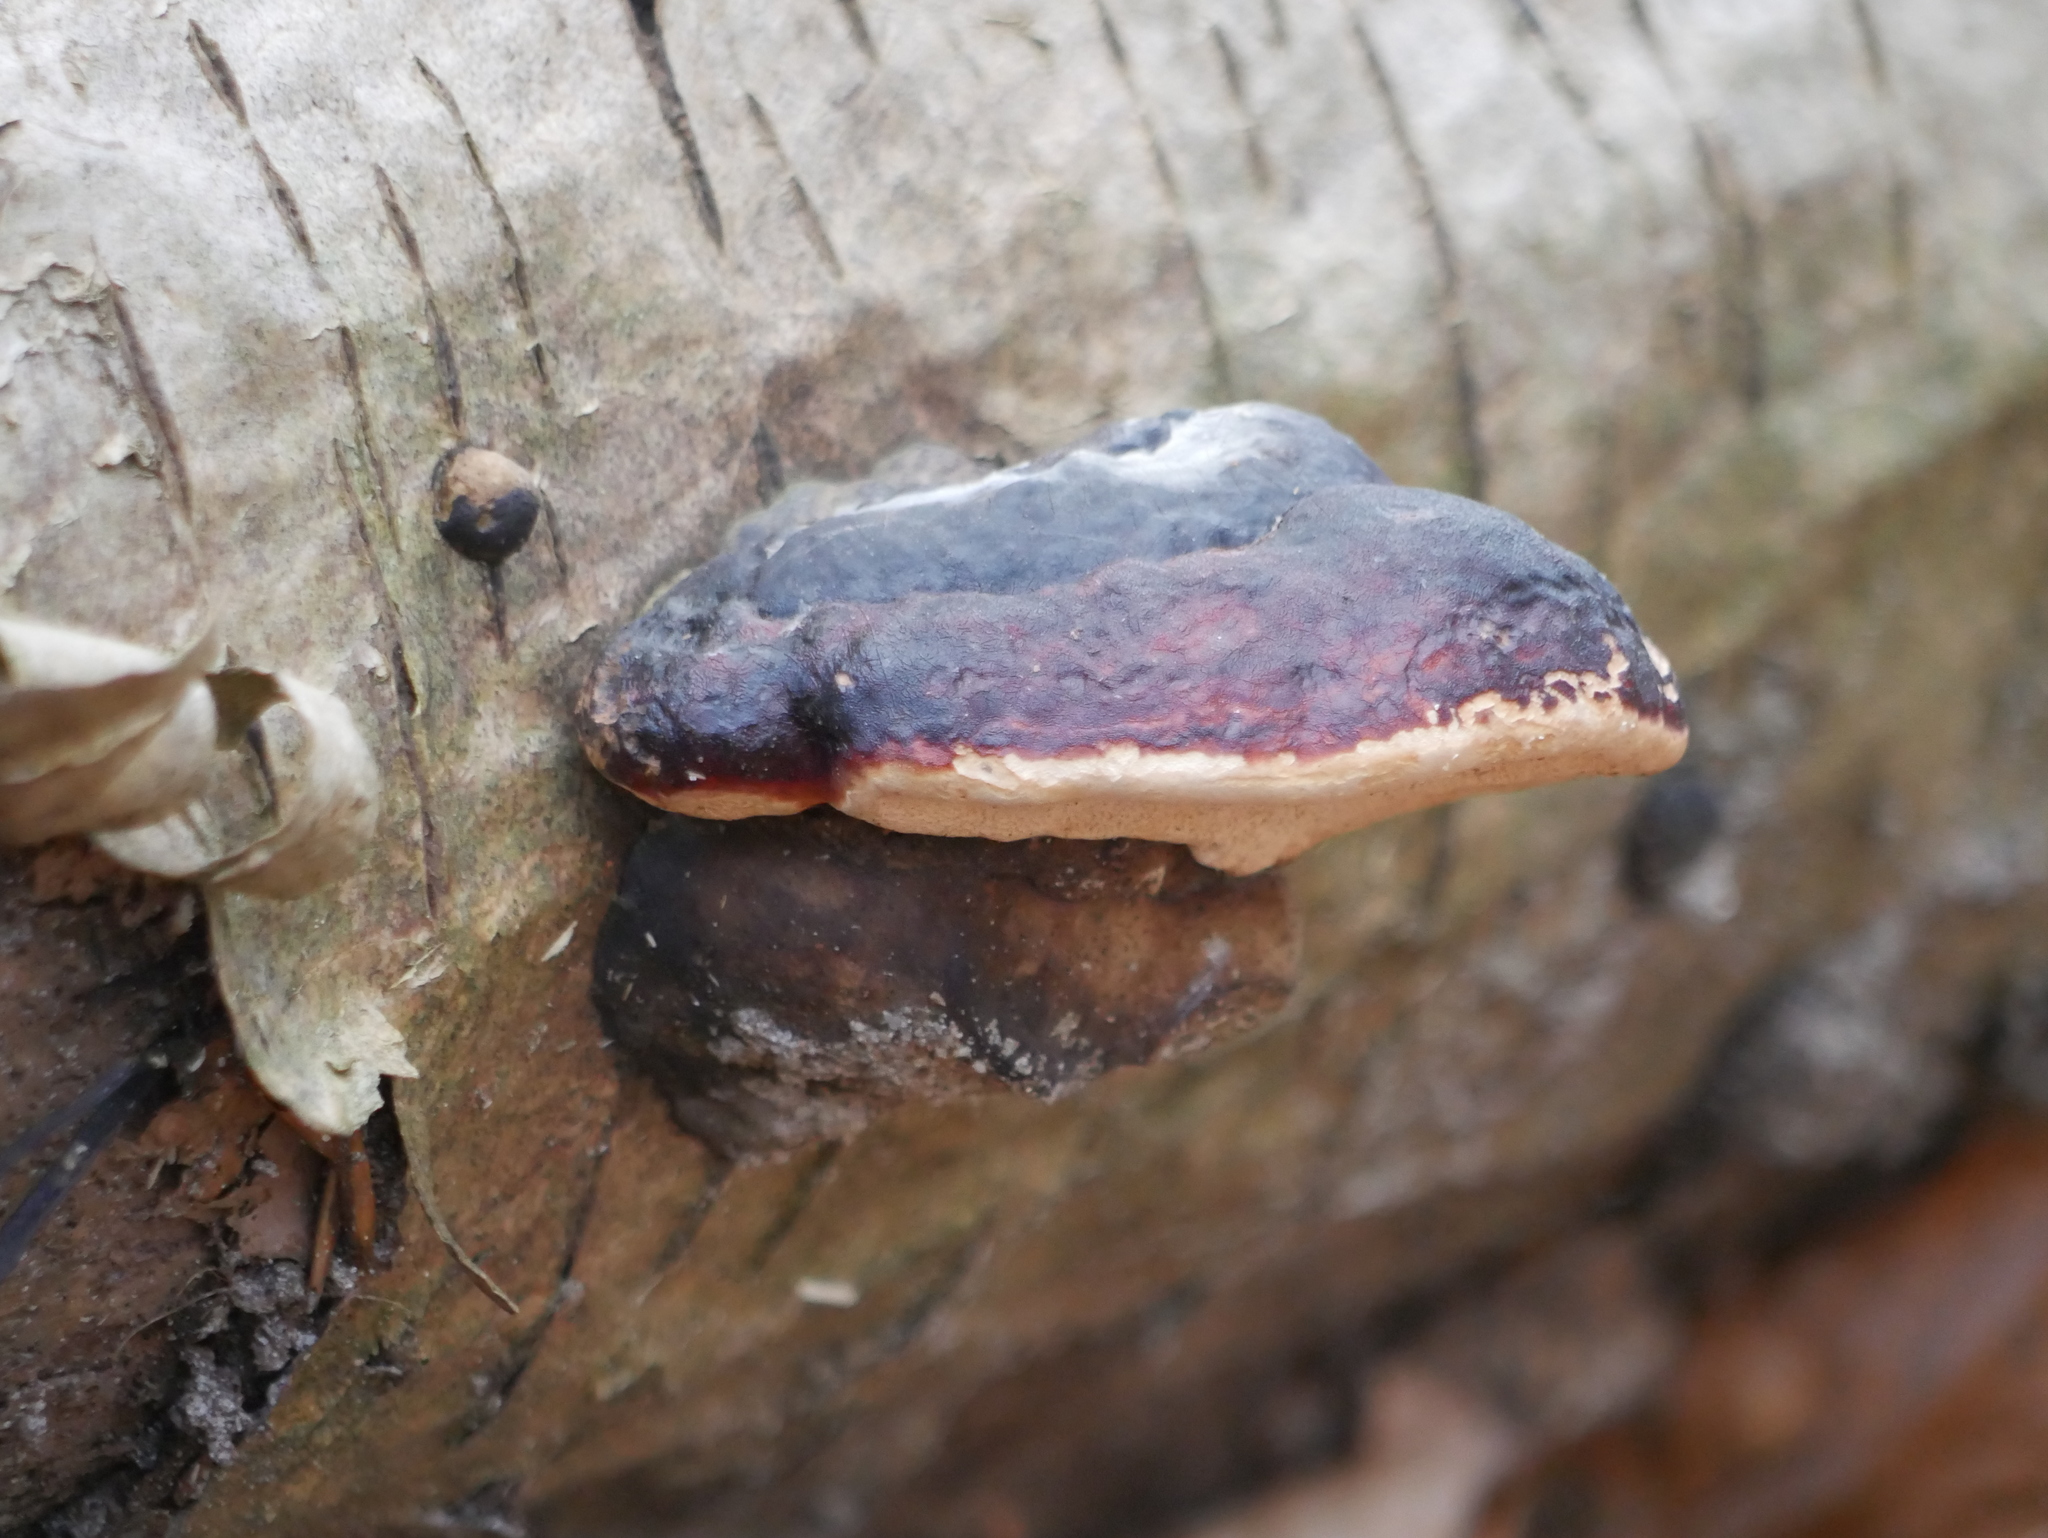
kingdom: Fungi
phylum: Basidiomycota
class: Agaricomycetes
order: Polyporales
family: Fomitopsidaceae
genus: Fomitopsis
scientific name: Fomitopsis pinicola
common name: Red-belted bracket
